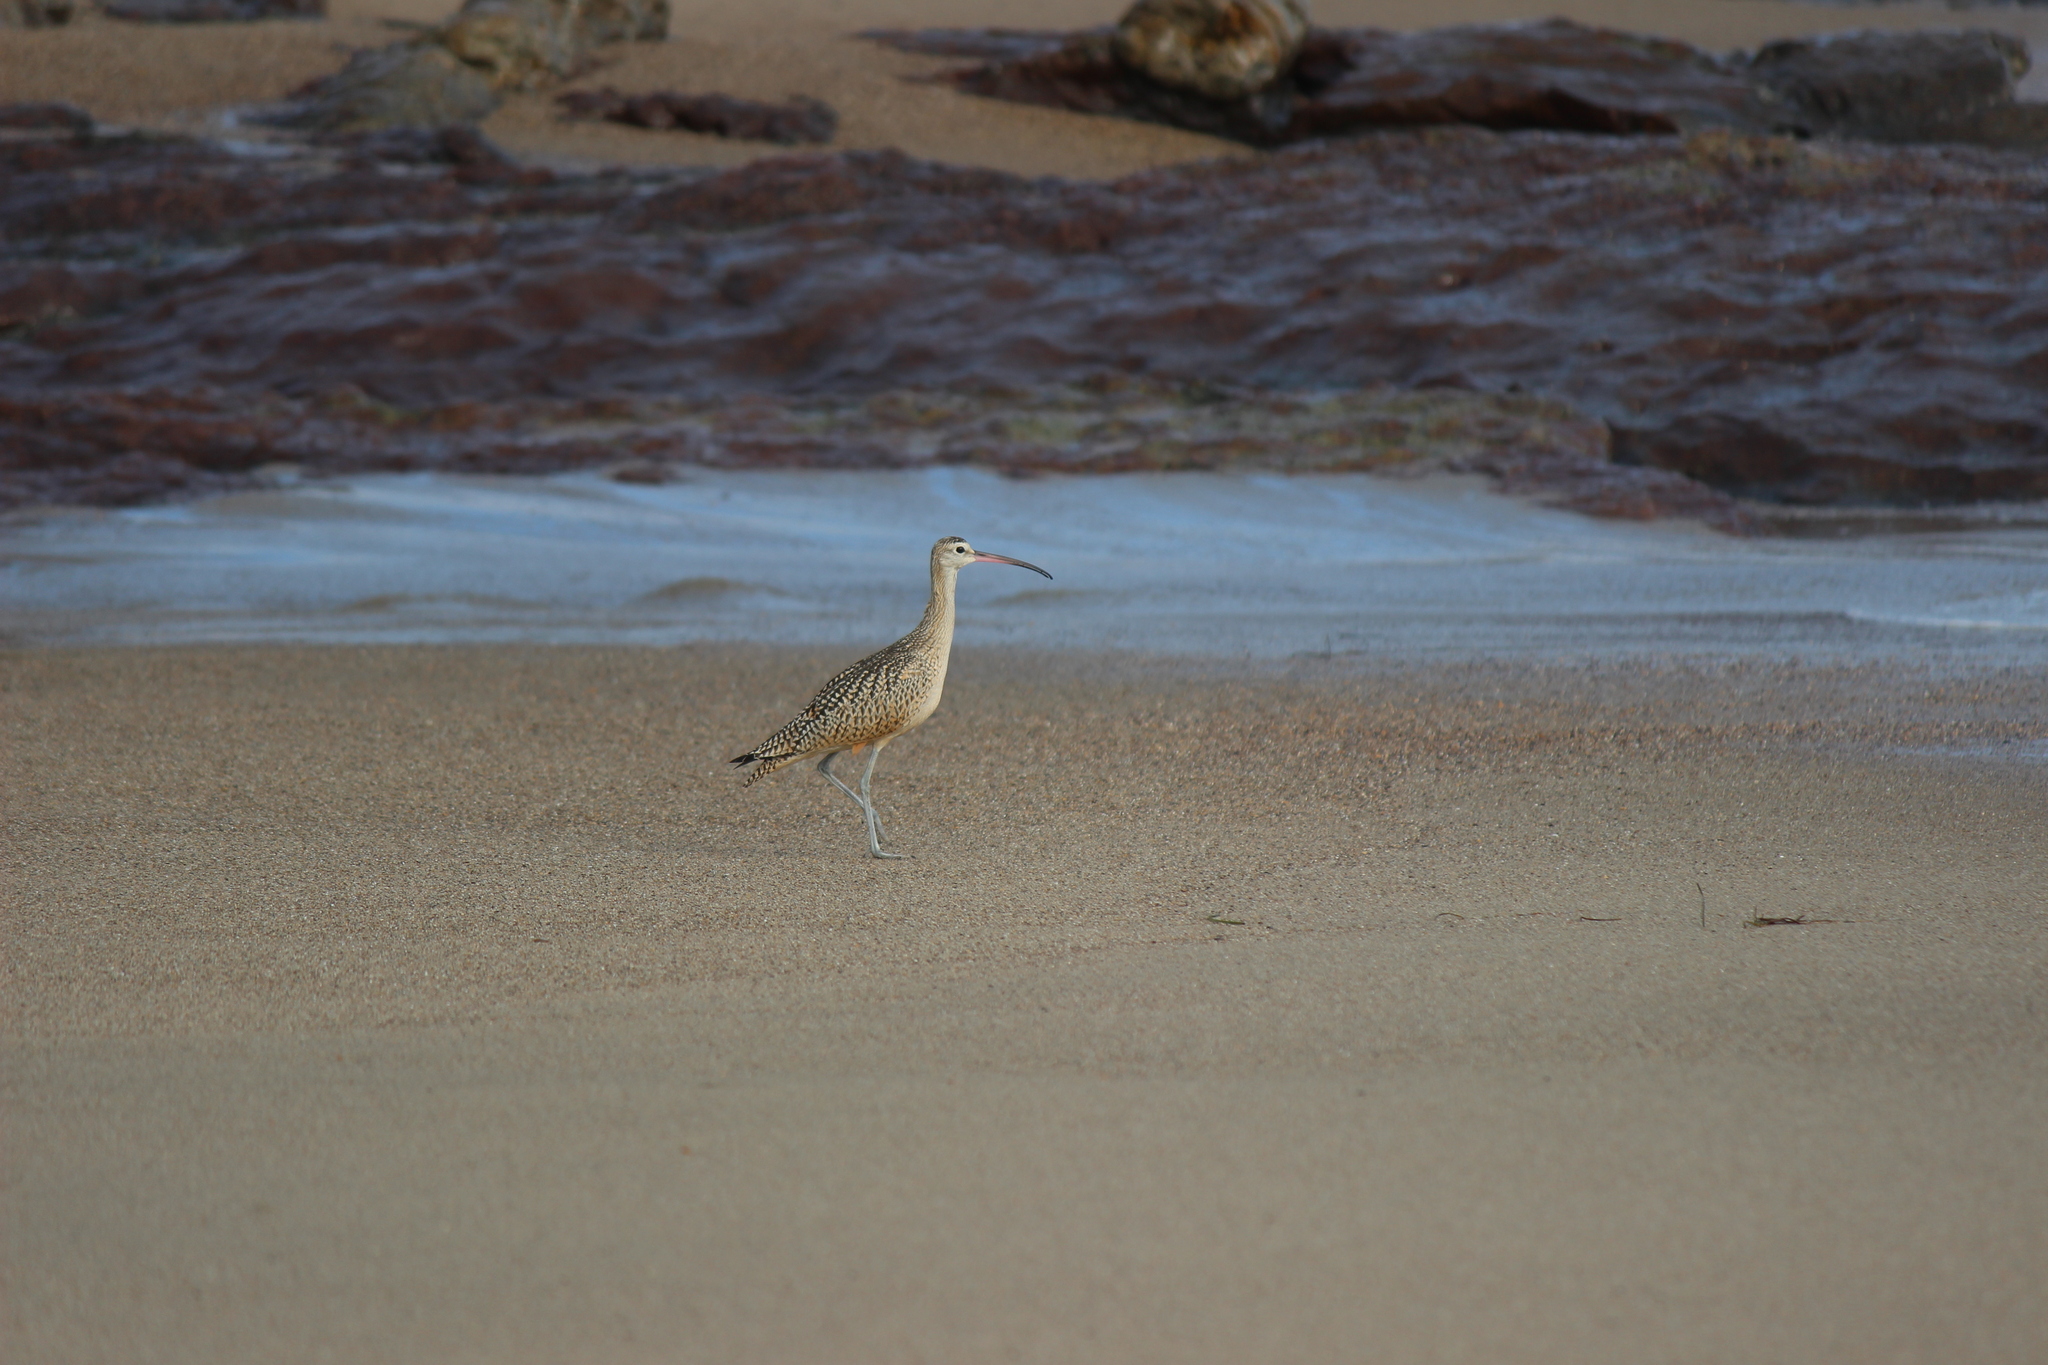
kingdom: Animalia
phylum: Chordata
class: Aves
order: Charadriiformes
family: Scolopacidae
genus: Numenius
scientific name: Numenius americanus
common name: Long-billed curlew
